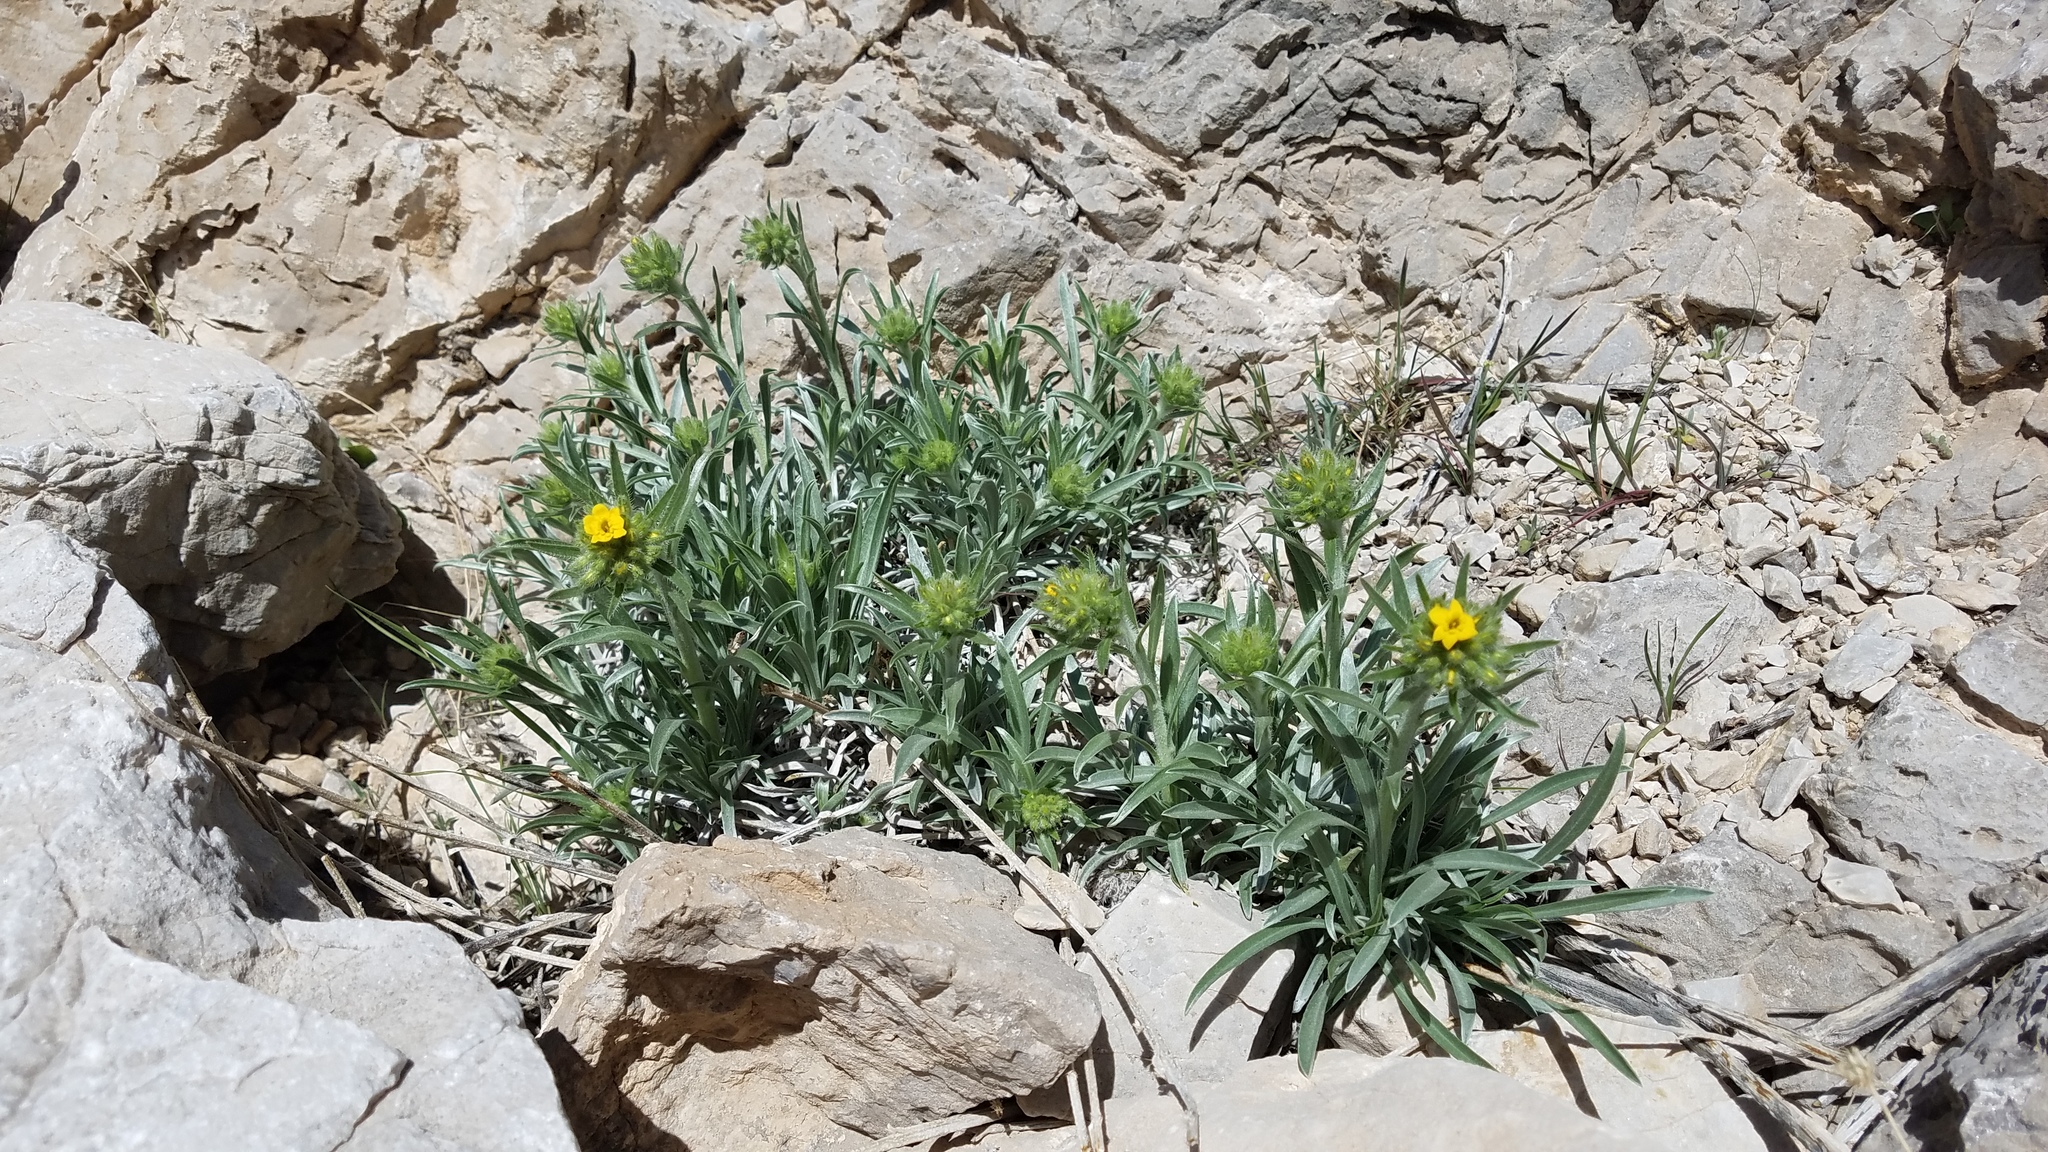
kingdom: Plantae
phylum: Tracheophyta
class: Magnoliopsida
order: Boraginales
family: Boraginaceae
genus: Oreocarya
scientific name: Oreocarya confertiflora
